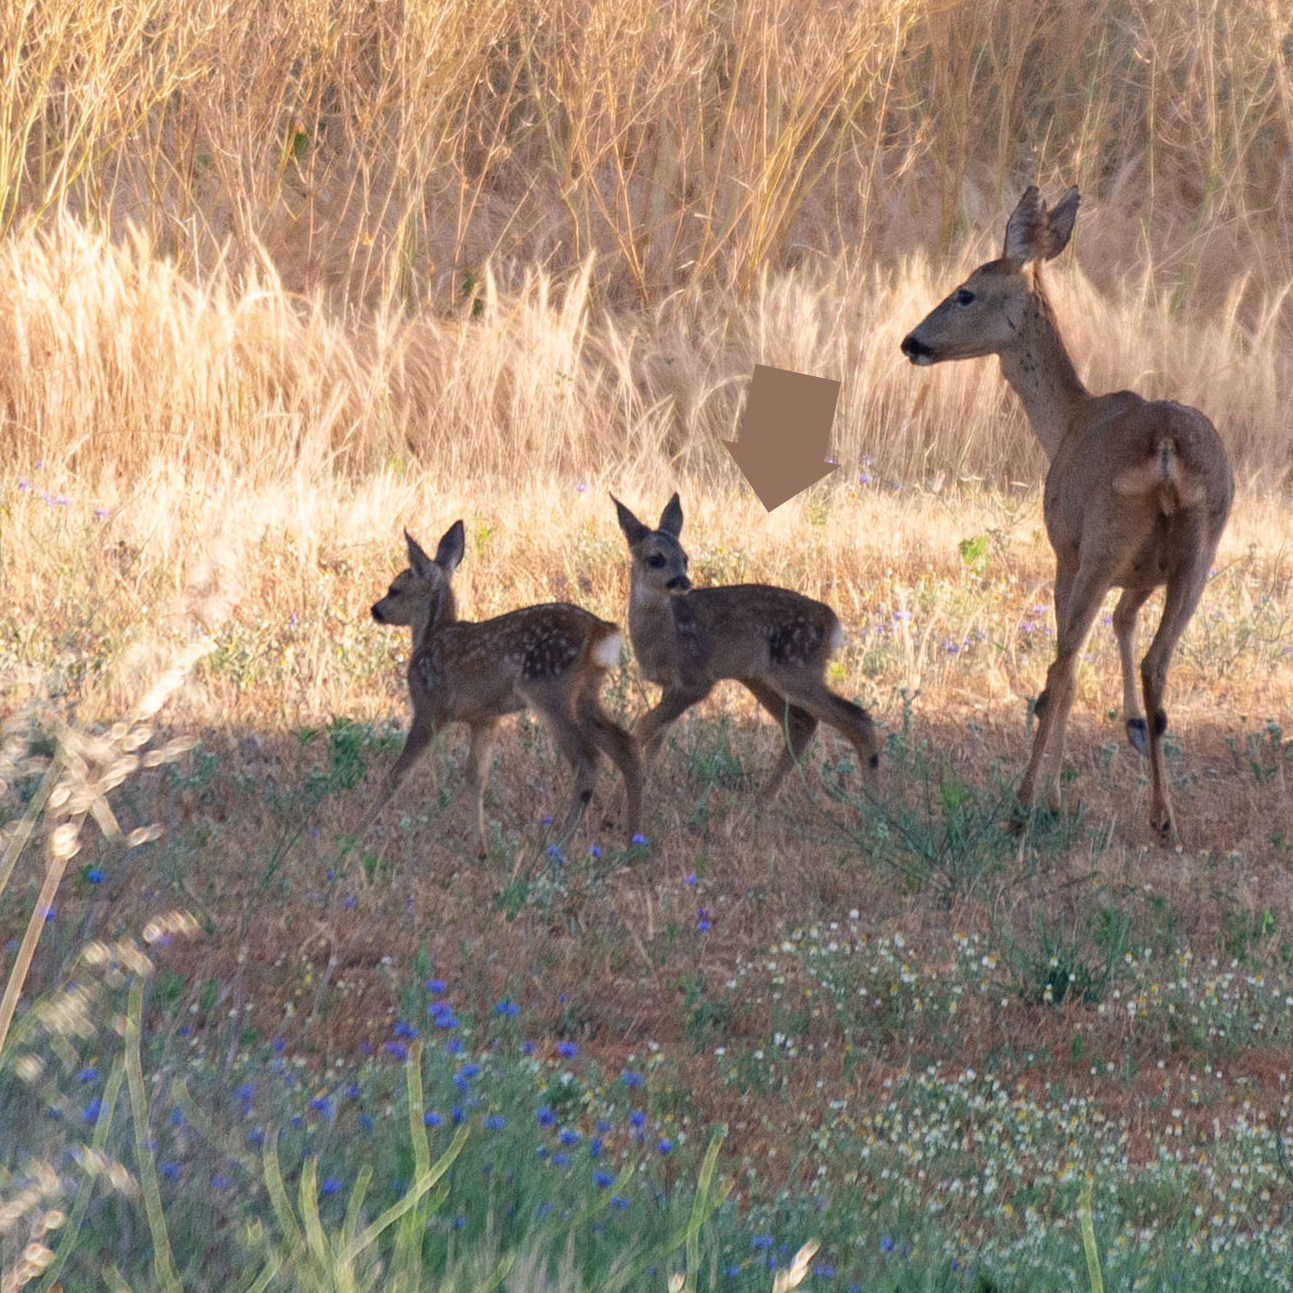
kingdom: Animalia
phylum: Chordata
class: Mammalia
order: Artiodactyla
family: Cervidae
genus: Capreolus
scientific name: Capreolus capreolus
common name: Western roe deer
